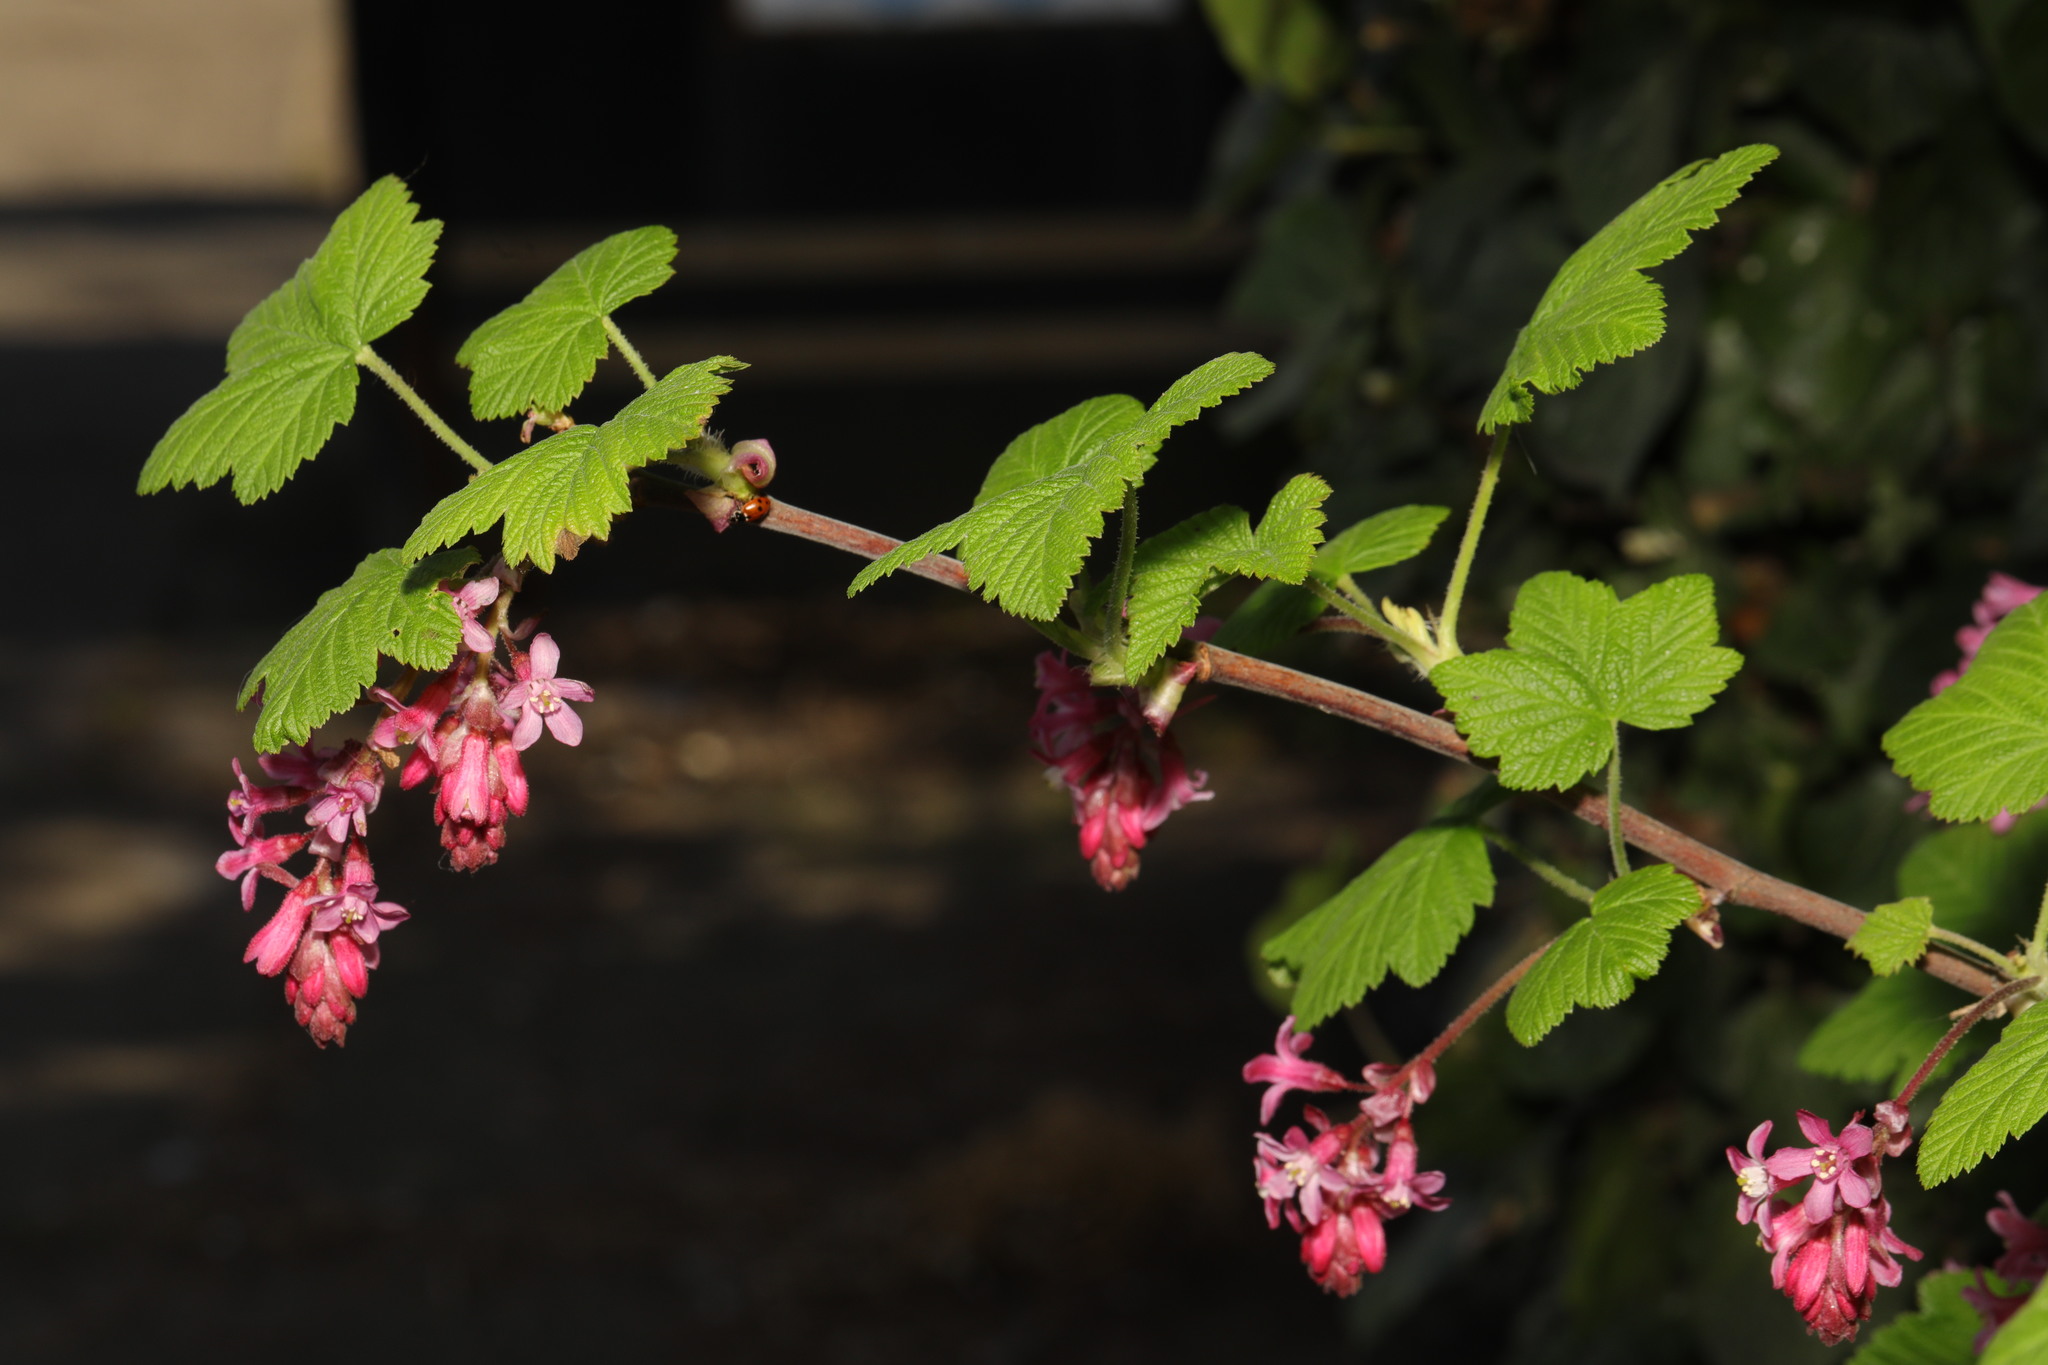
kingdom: Plantae
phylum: Tracheophyta
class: Magnoliopsida
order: Saxifragales
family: Grossulariaceae
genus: Ribes
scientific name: Ribes sanguineum
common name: Flowering currant
